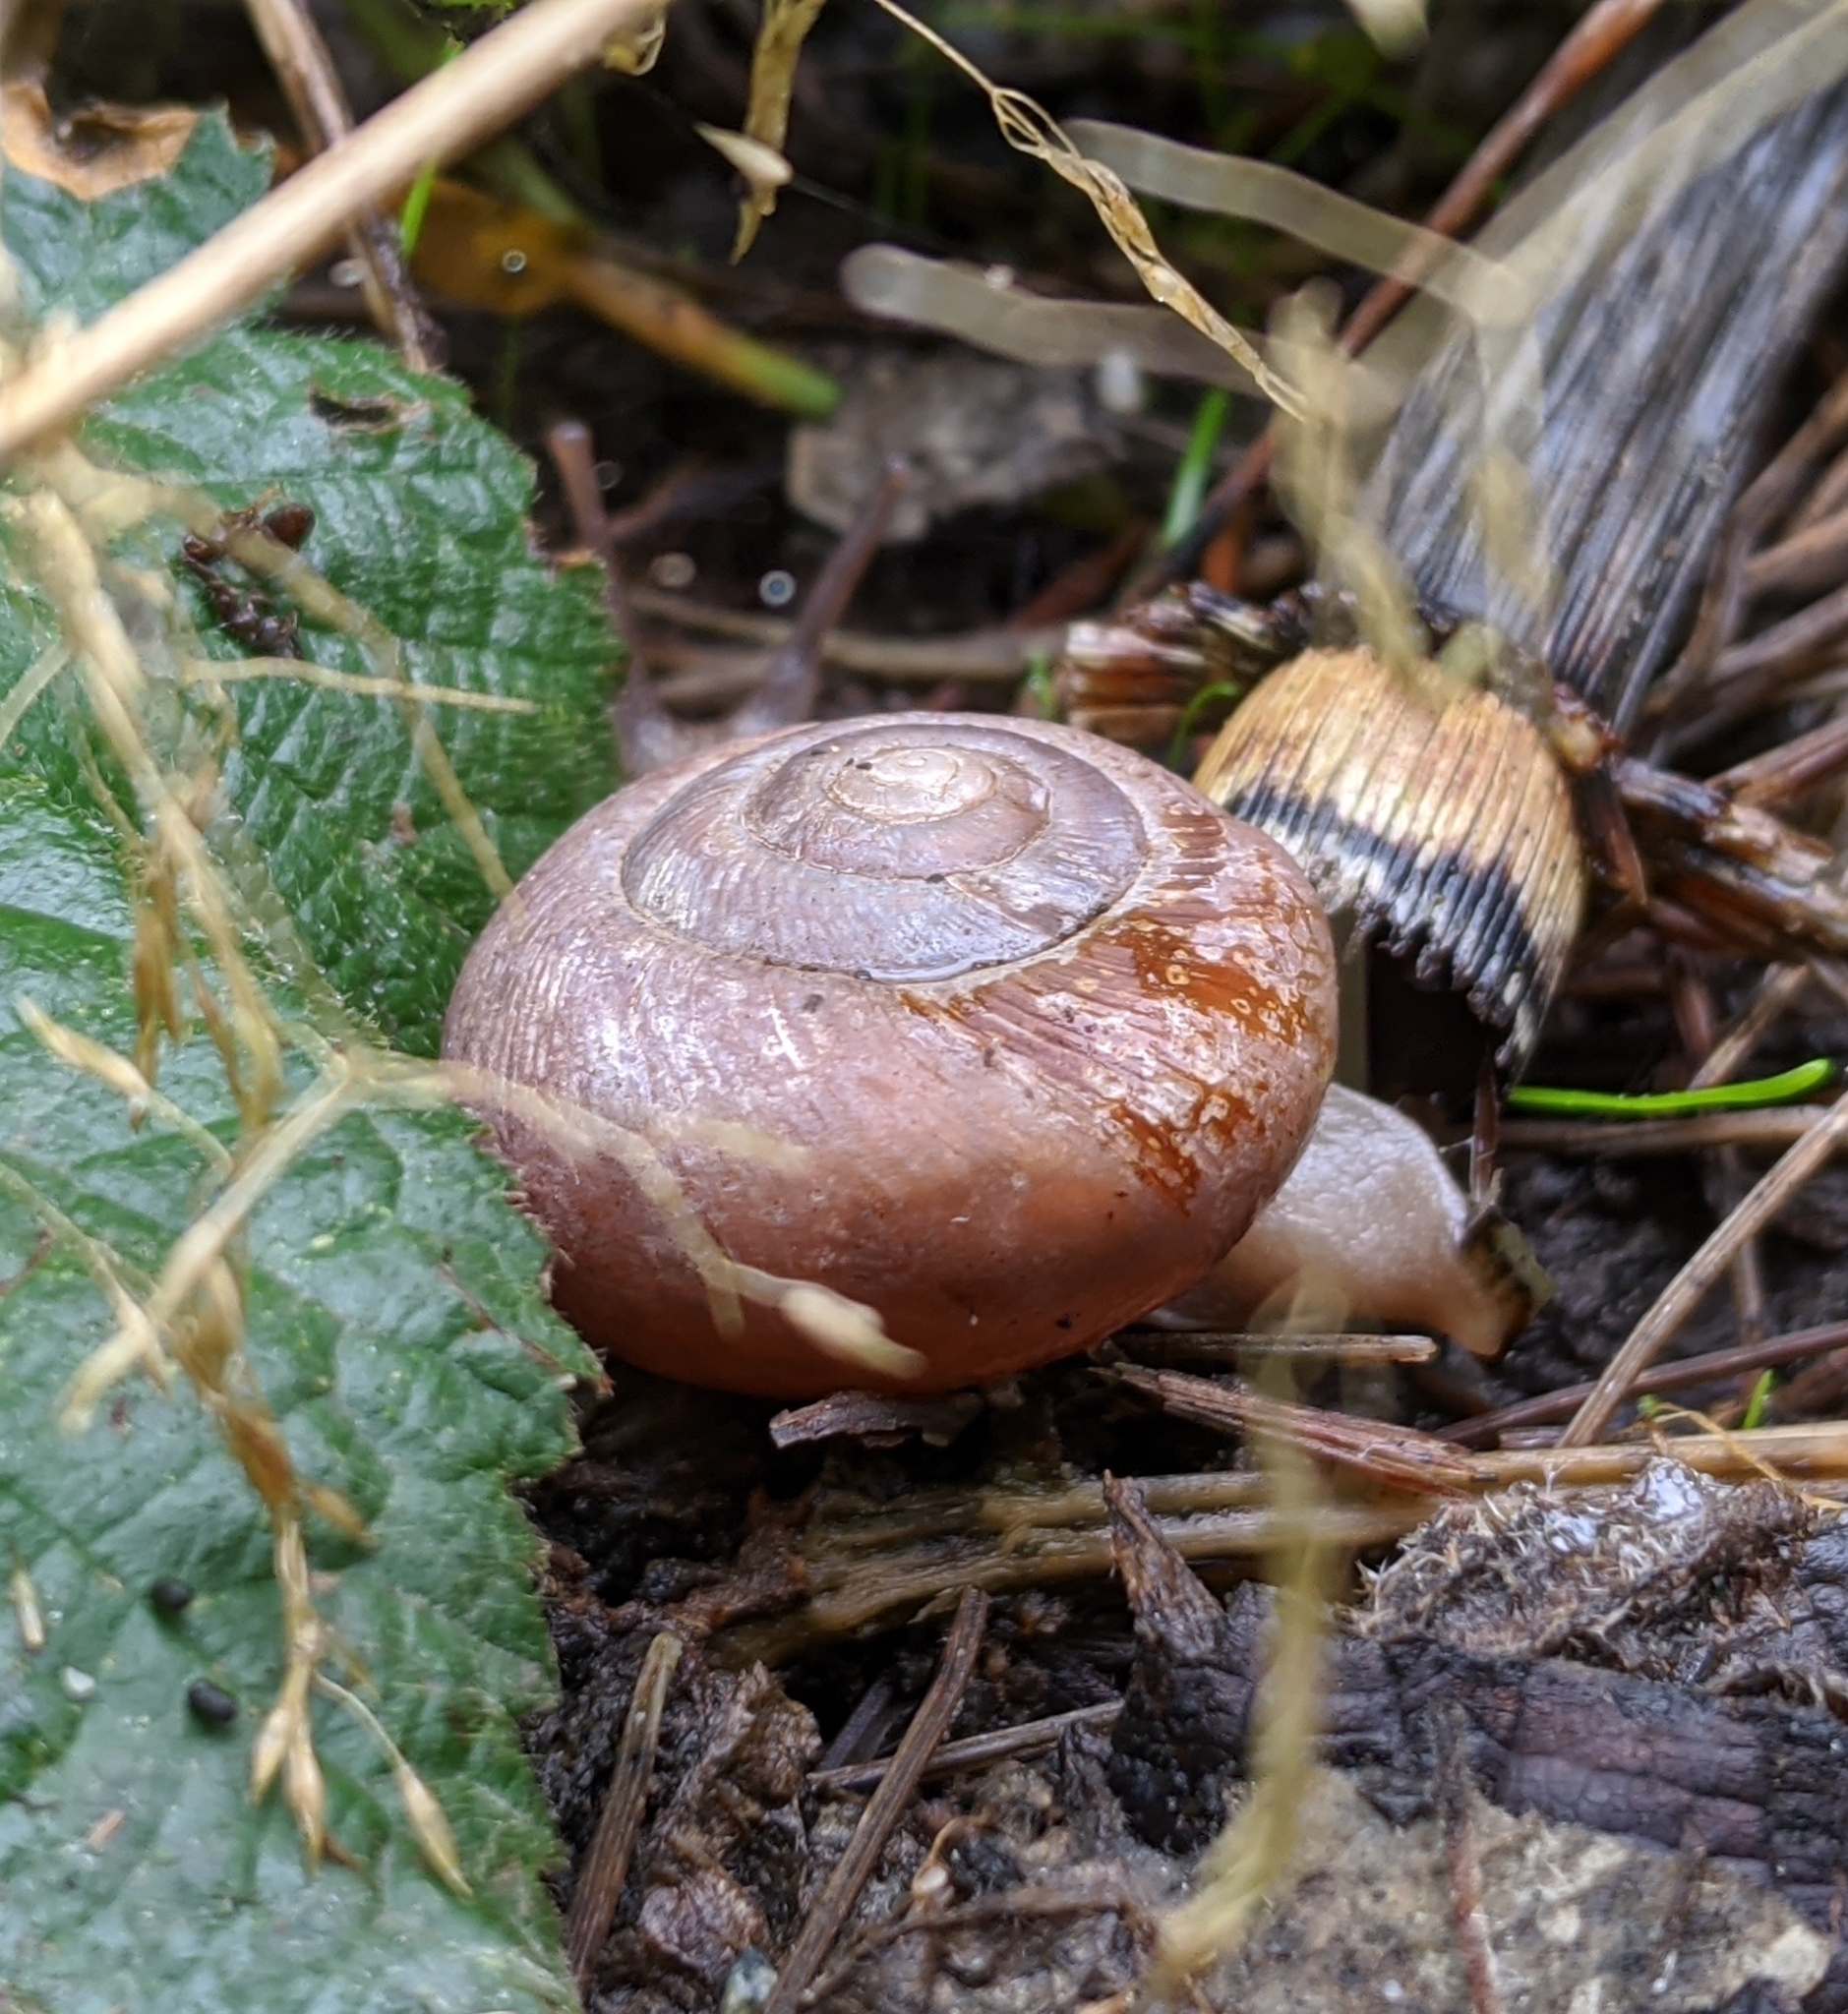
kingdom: Animalia
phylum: Mollusca
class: Gastropoda
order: Stylommatophora
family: Polygyridae
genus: Allogona
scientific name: Allogona townsendiana
